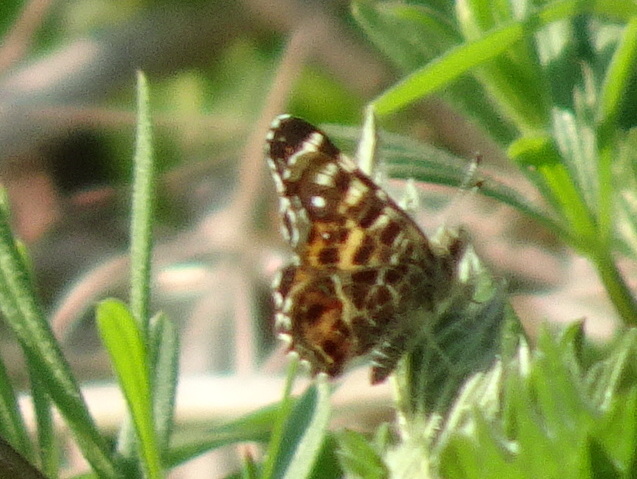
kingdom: Animalia
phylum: Arthropoda
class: Insecta
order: Lepidoptera
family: Nymphalidae
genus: Araschnia
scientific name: Araschnia levana
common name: Map butterfly
